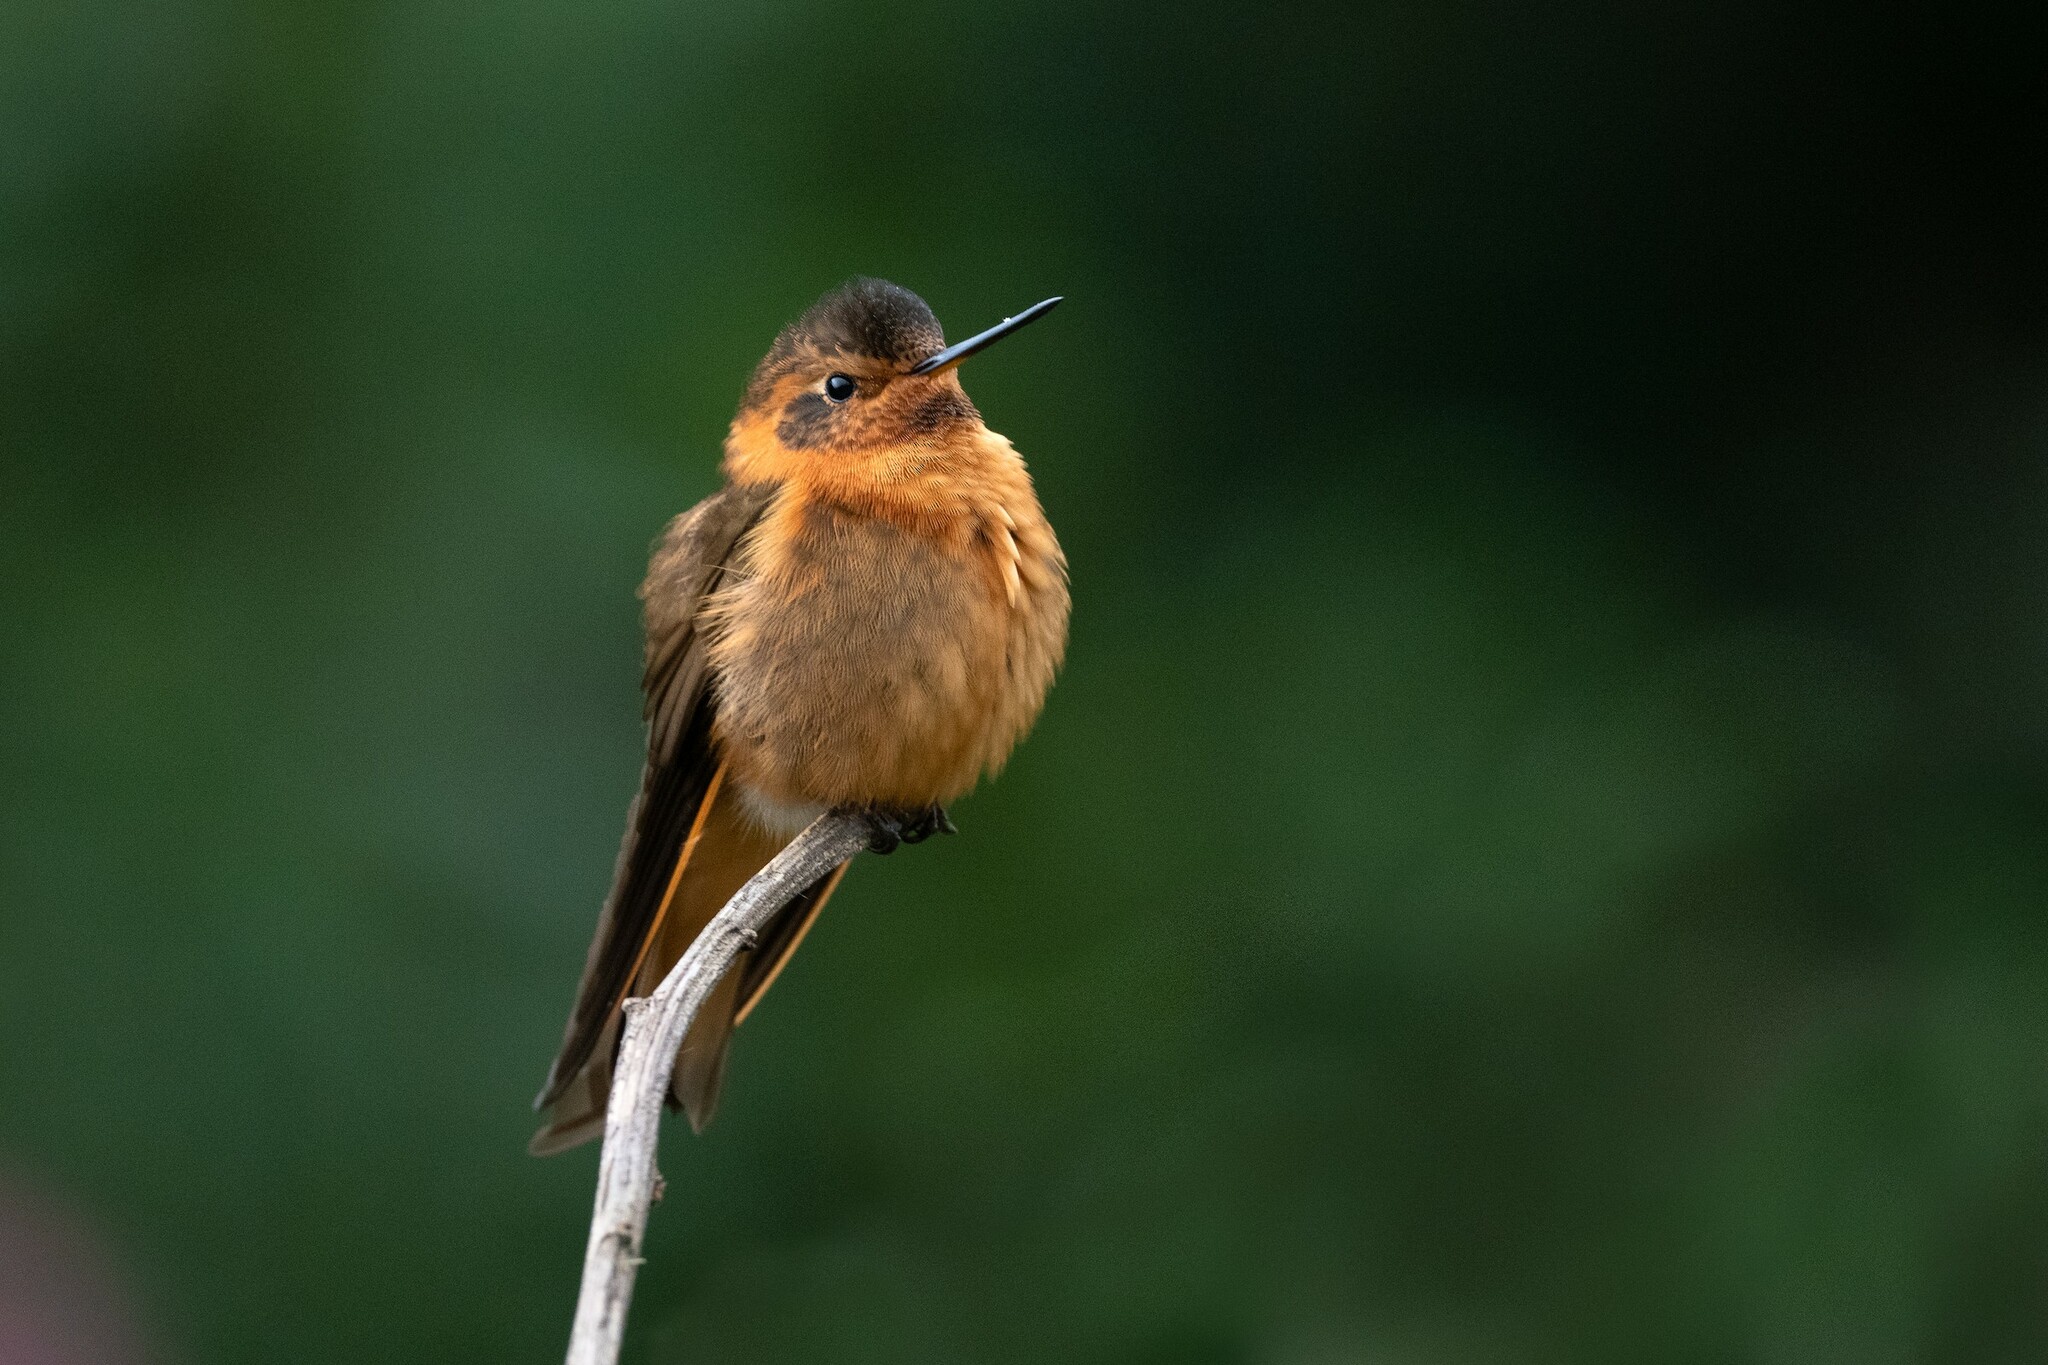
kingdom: Animalia
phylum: Chordata
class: Aves
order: Apodiformes
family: Trochilidae
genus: Aglaeactis
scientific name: Aglaeactis cupripennis
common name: Shining sunbeam
